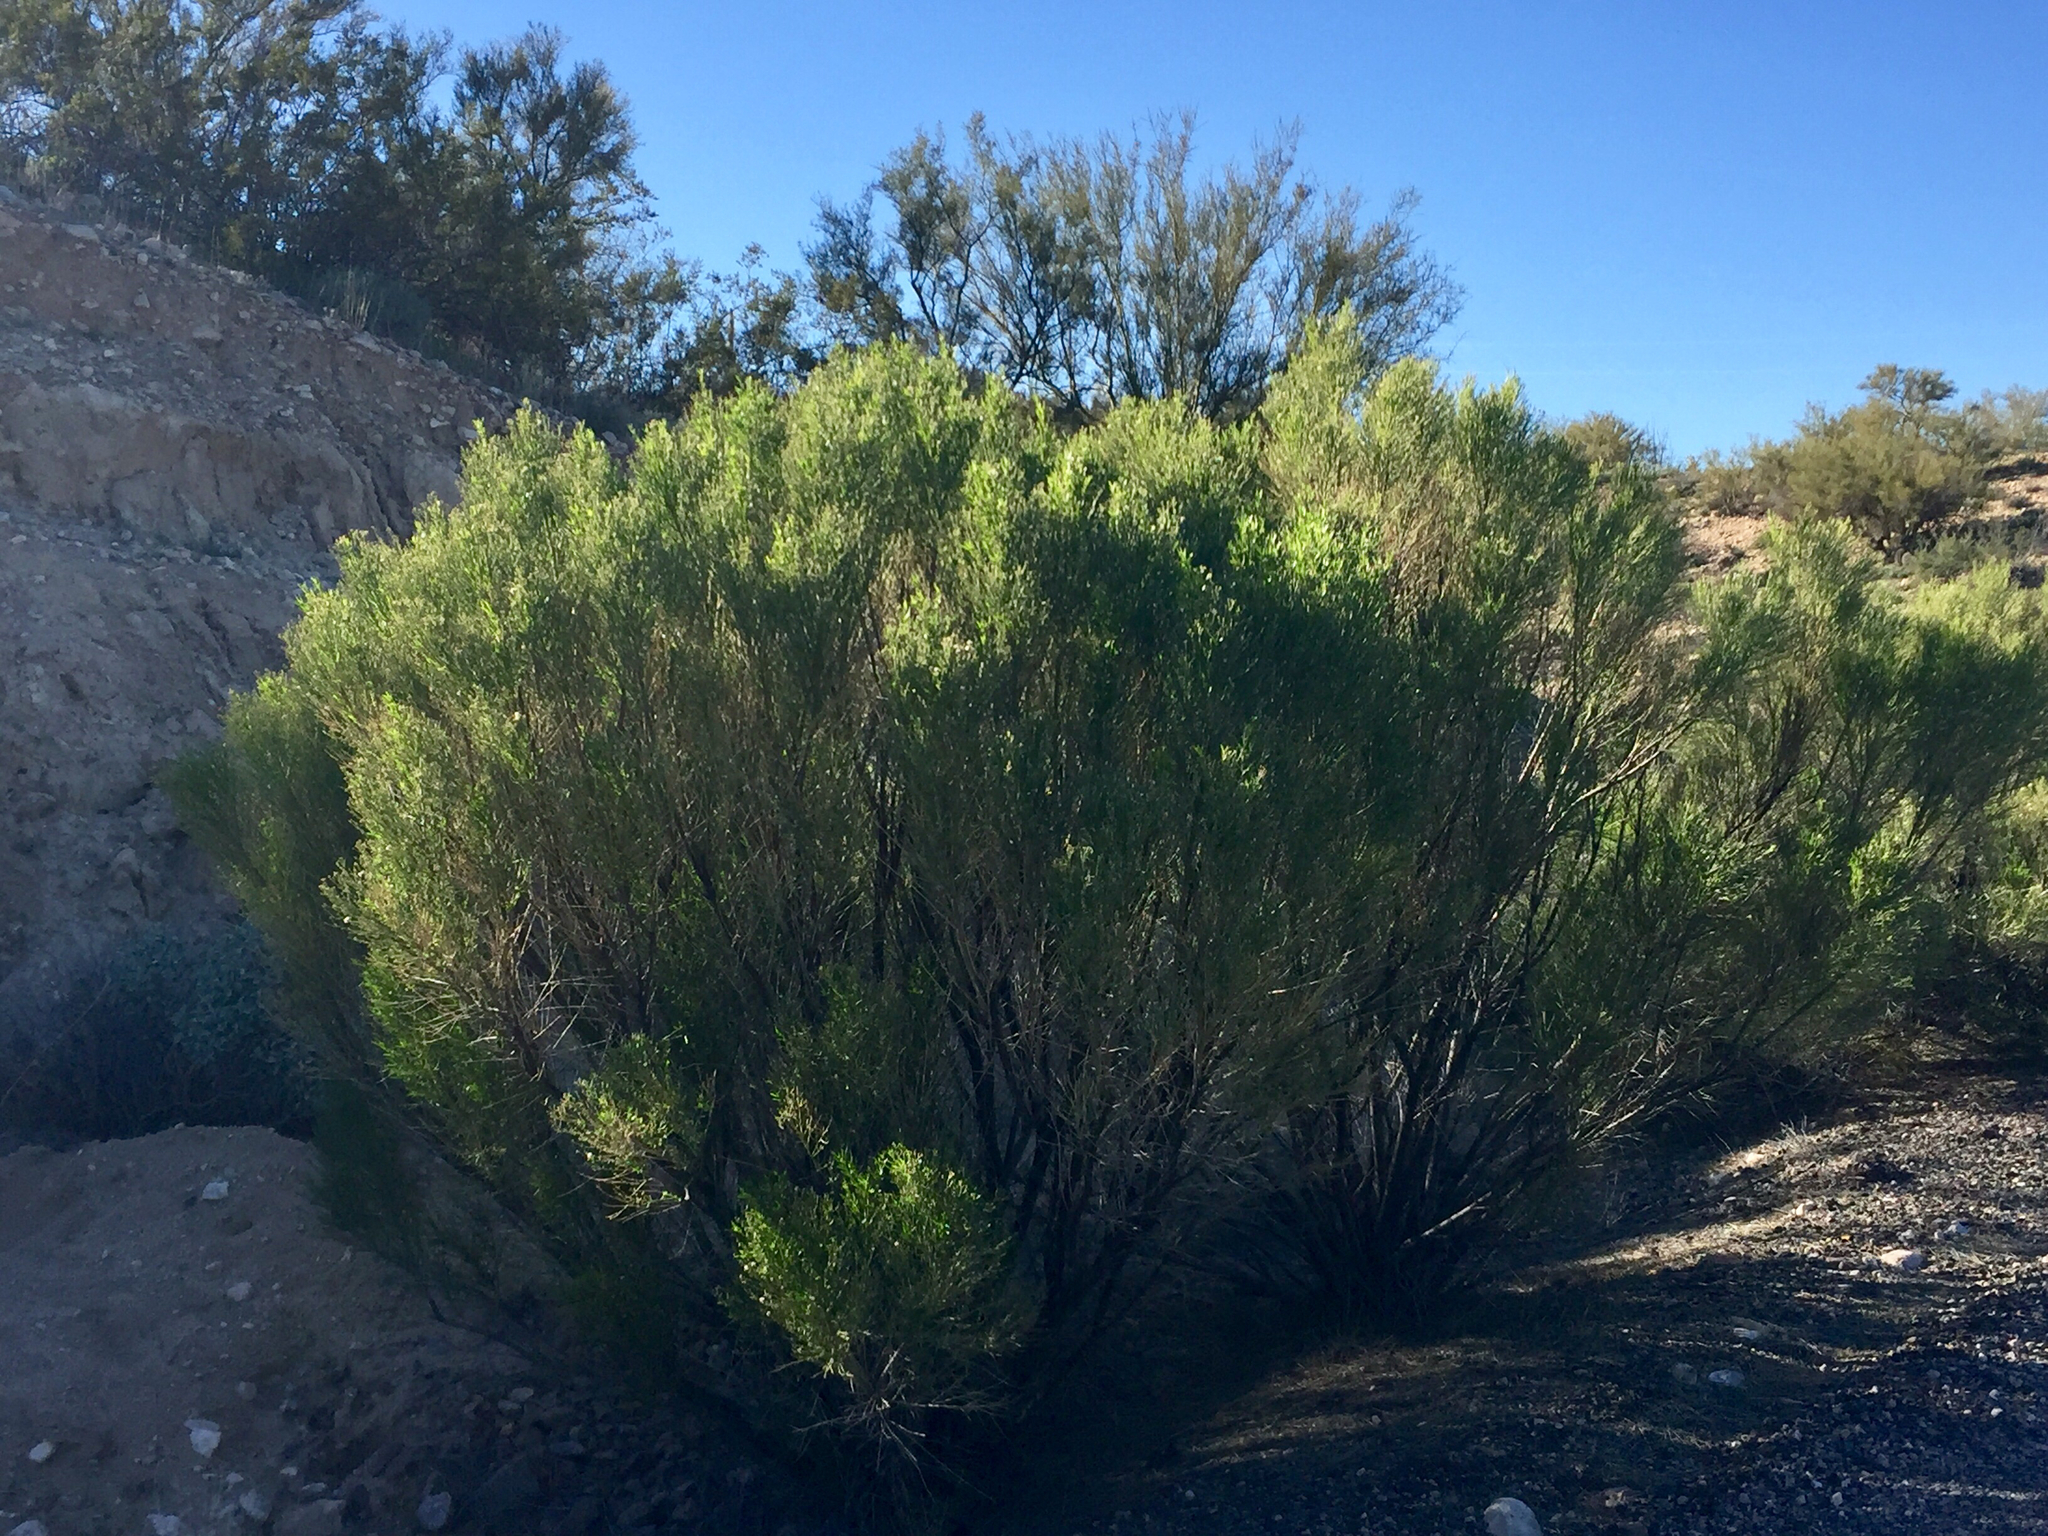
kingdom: Plantae
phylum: Tracheophyta
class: Magnoliopsida
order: Asterales
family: Asteraceae
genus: Baccharis
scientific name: Baccharis sarothroides
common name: Desert-broom
